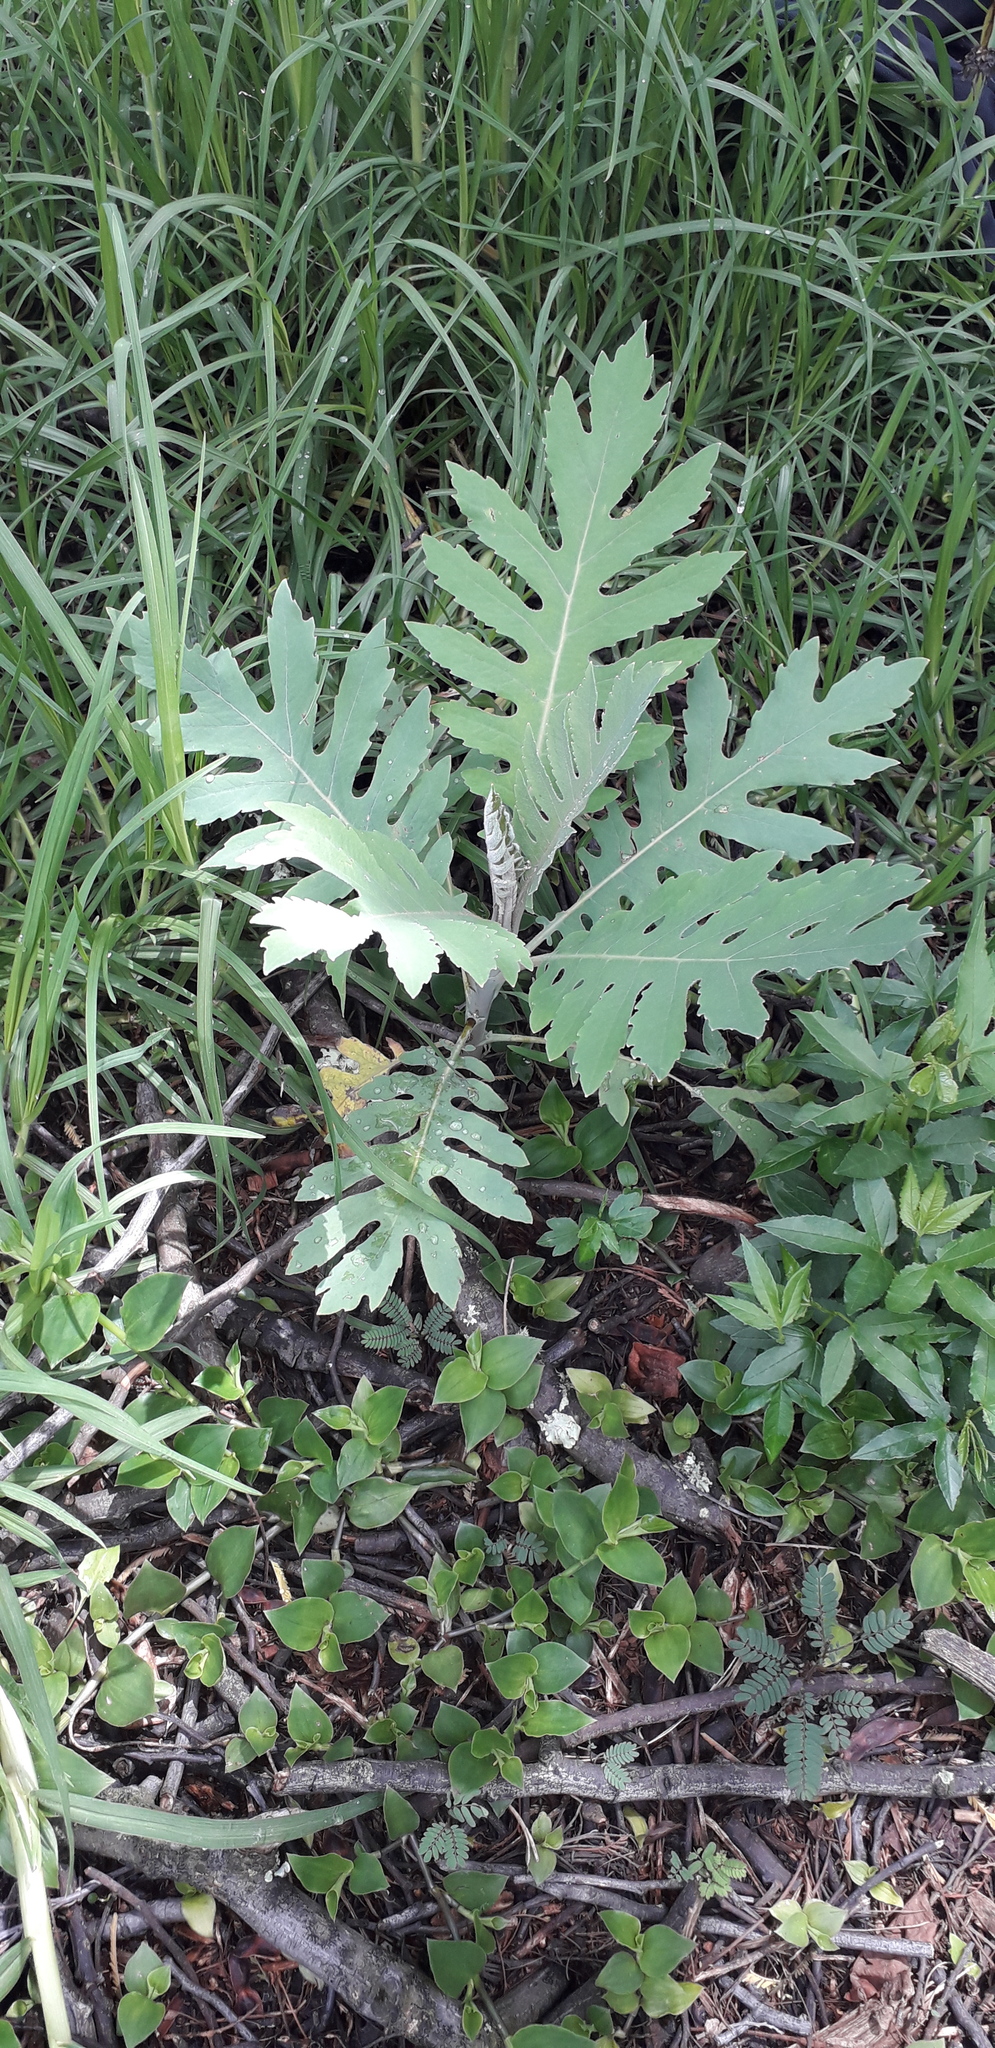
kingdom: Plantae
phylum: Tracheophyta
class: Magnoliopsida
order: Ranunculales
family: Papaveraceae
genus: Bocconia
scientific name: Bocconia frutescens
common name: Tree poppy
